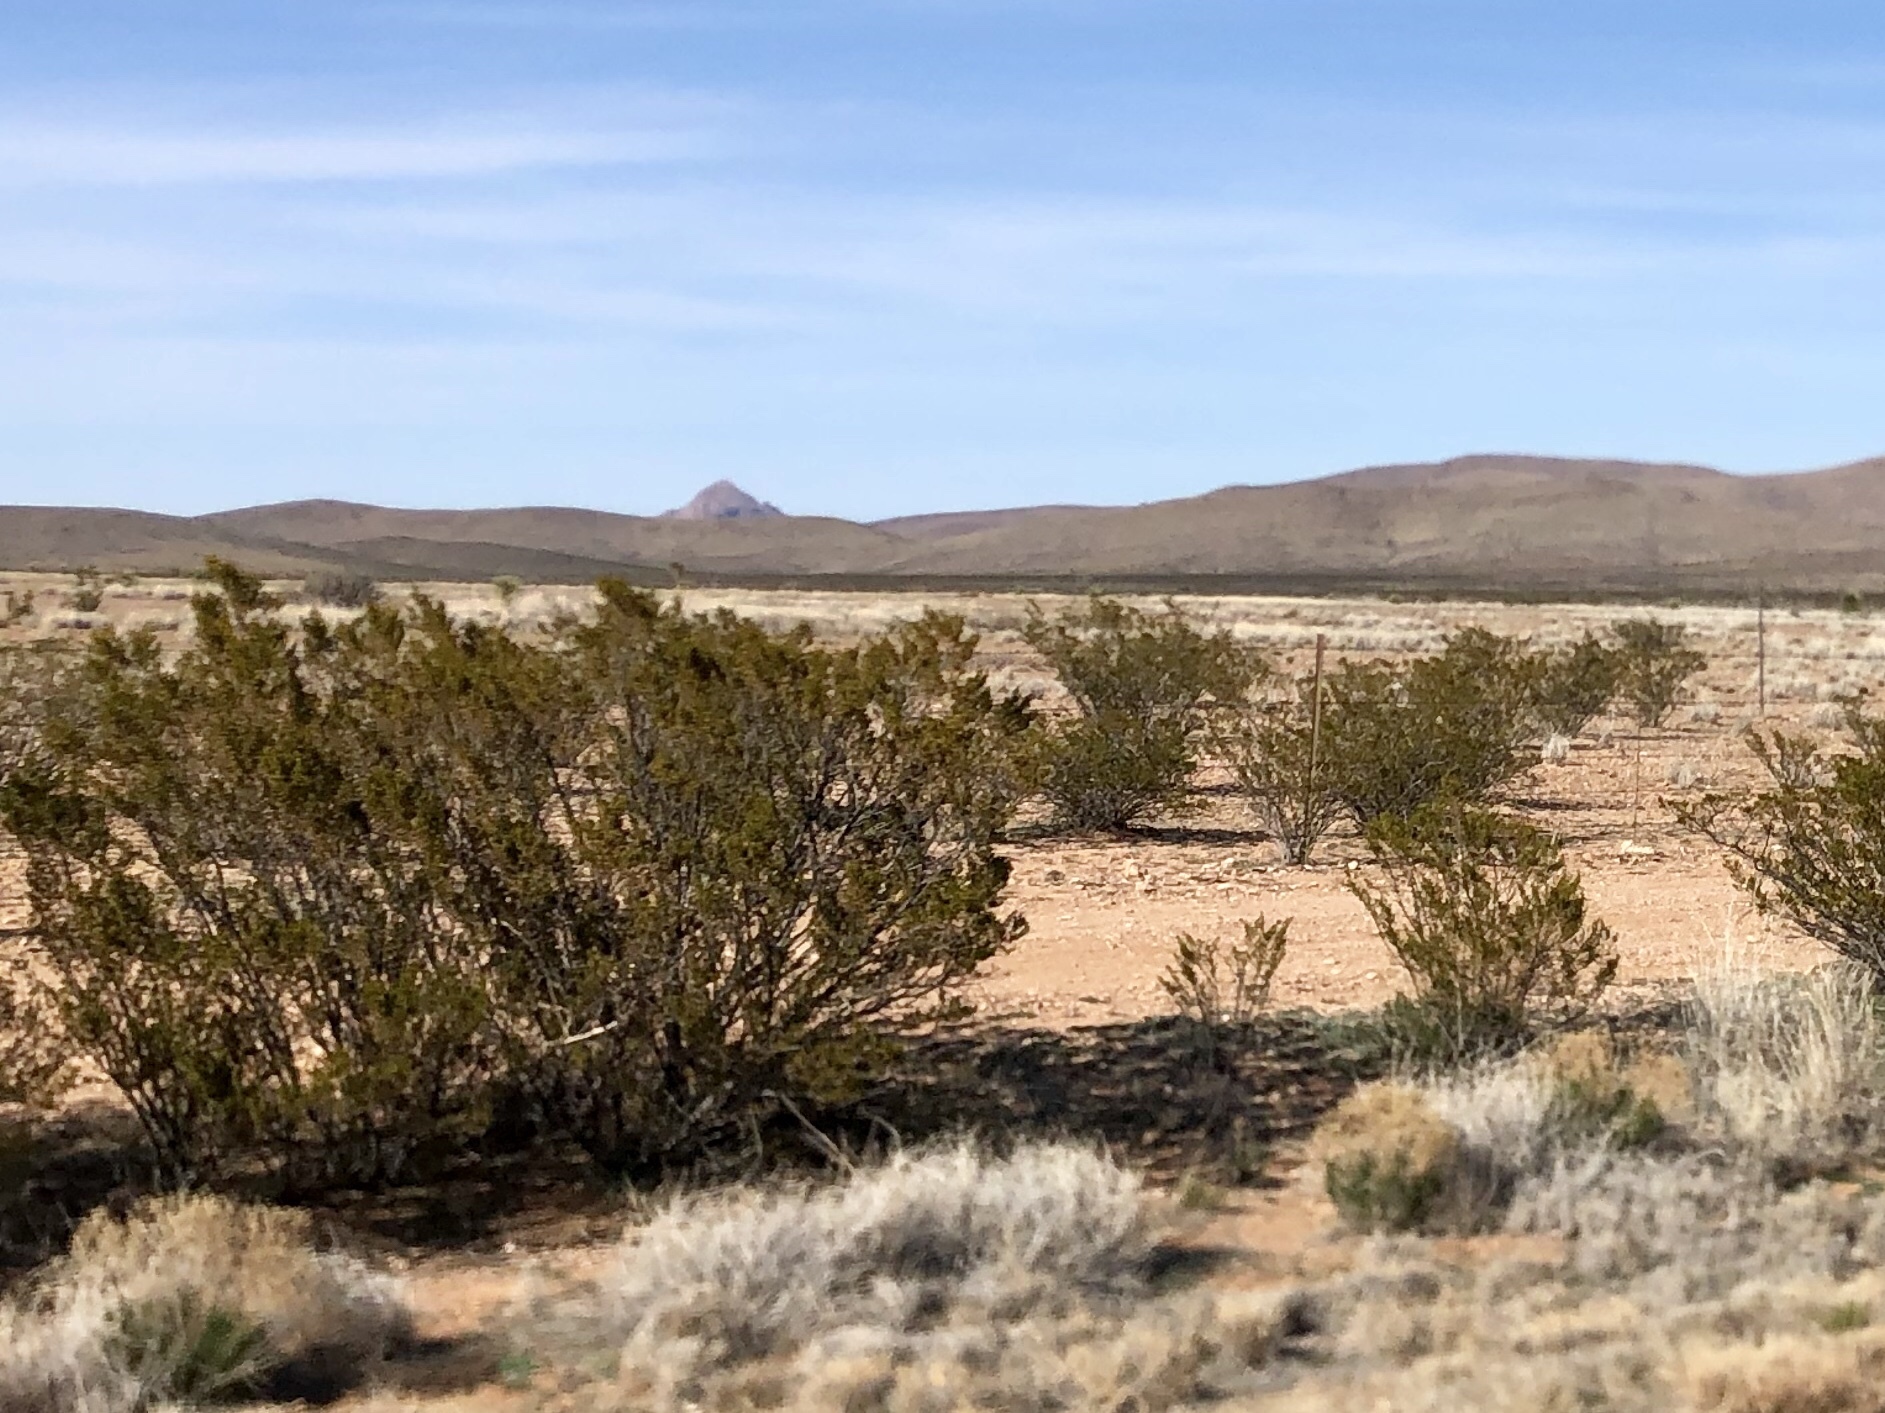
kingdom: Plantae
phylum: Tracheophyta
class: Magnoliopsida
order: Zygophyllales
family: Zygophyllaceae
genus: Larrea
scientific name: Larrea tridentata
